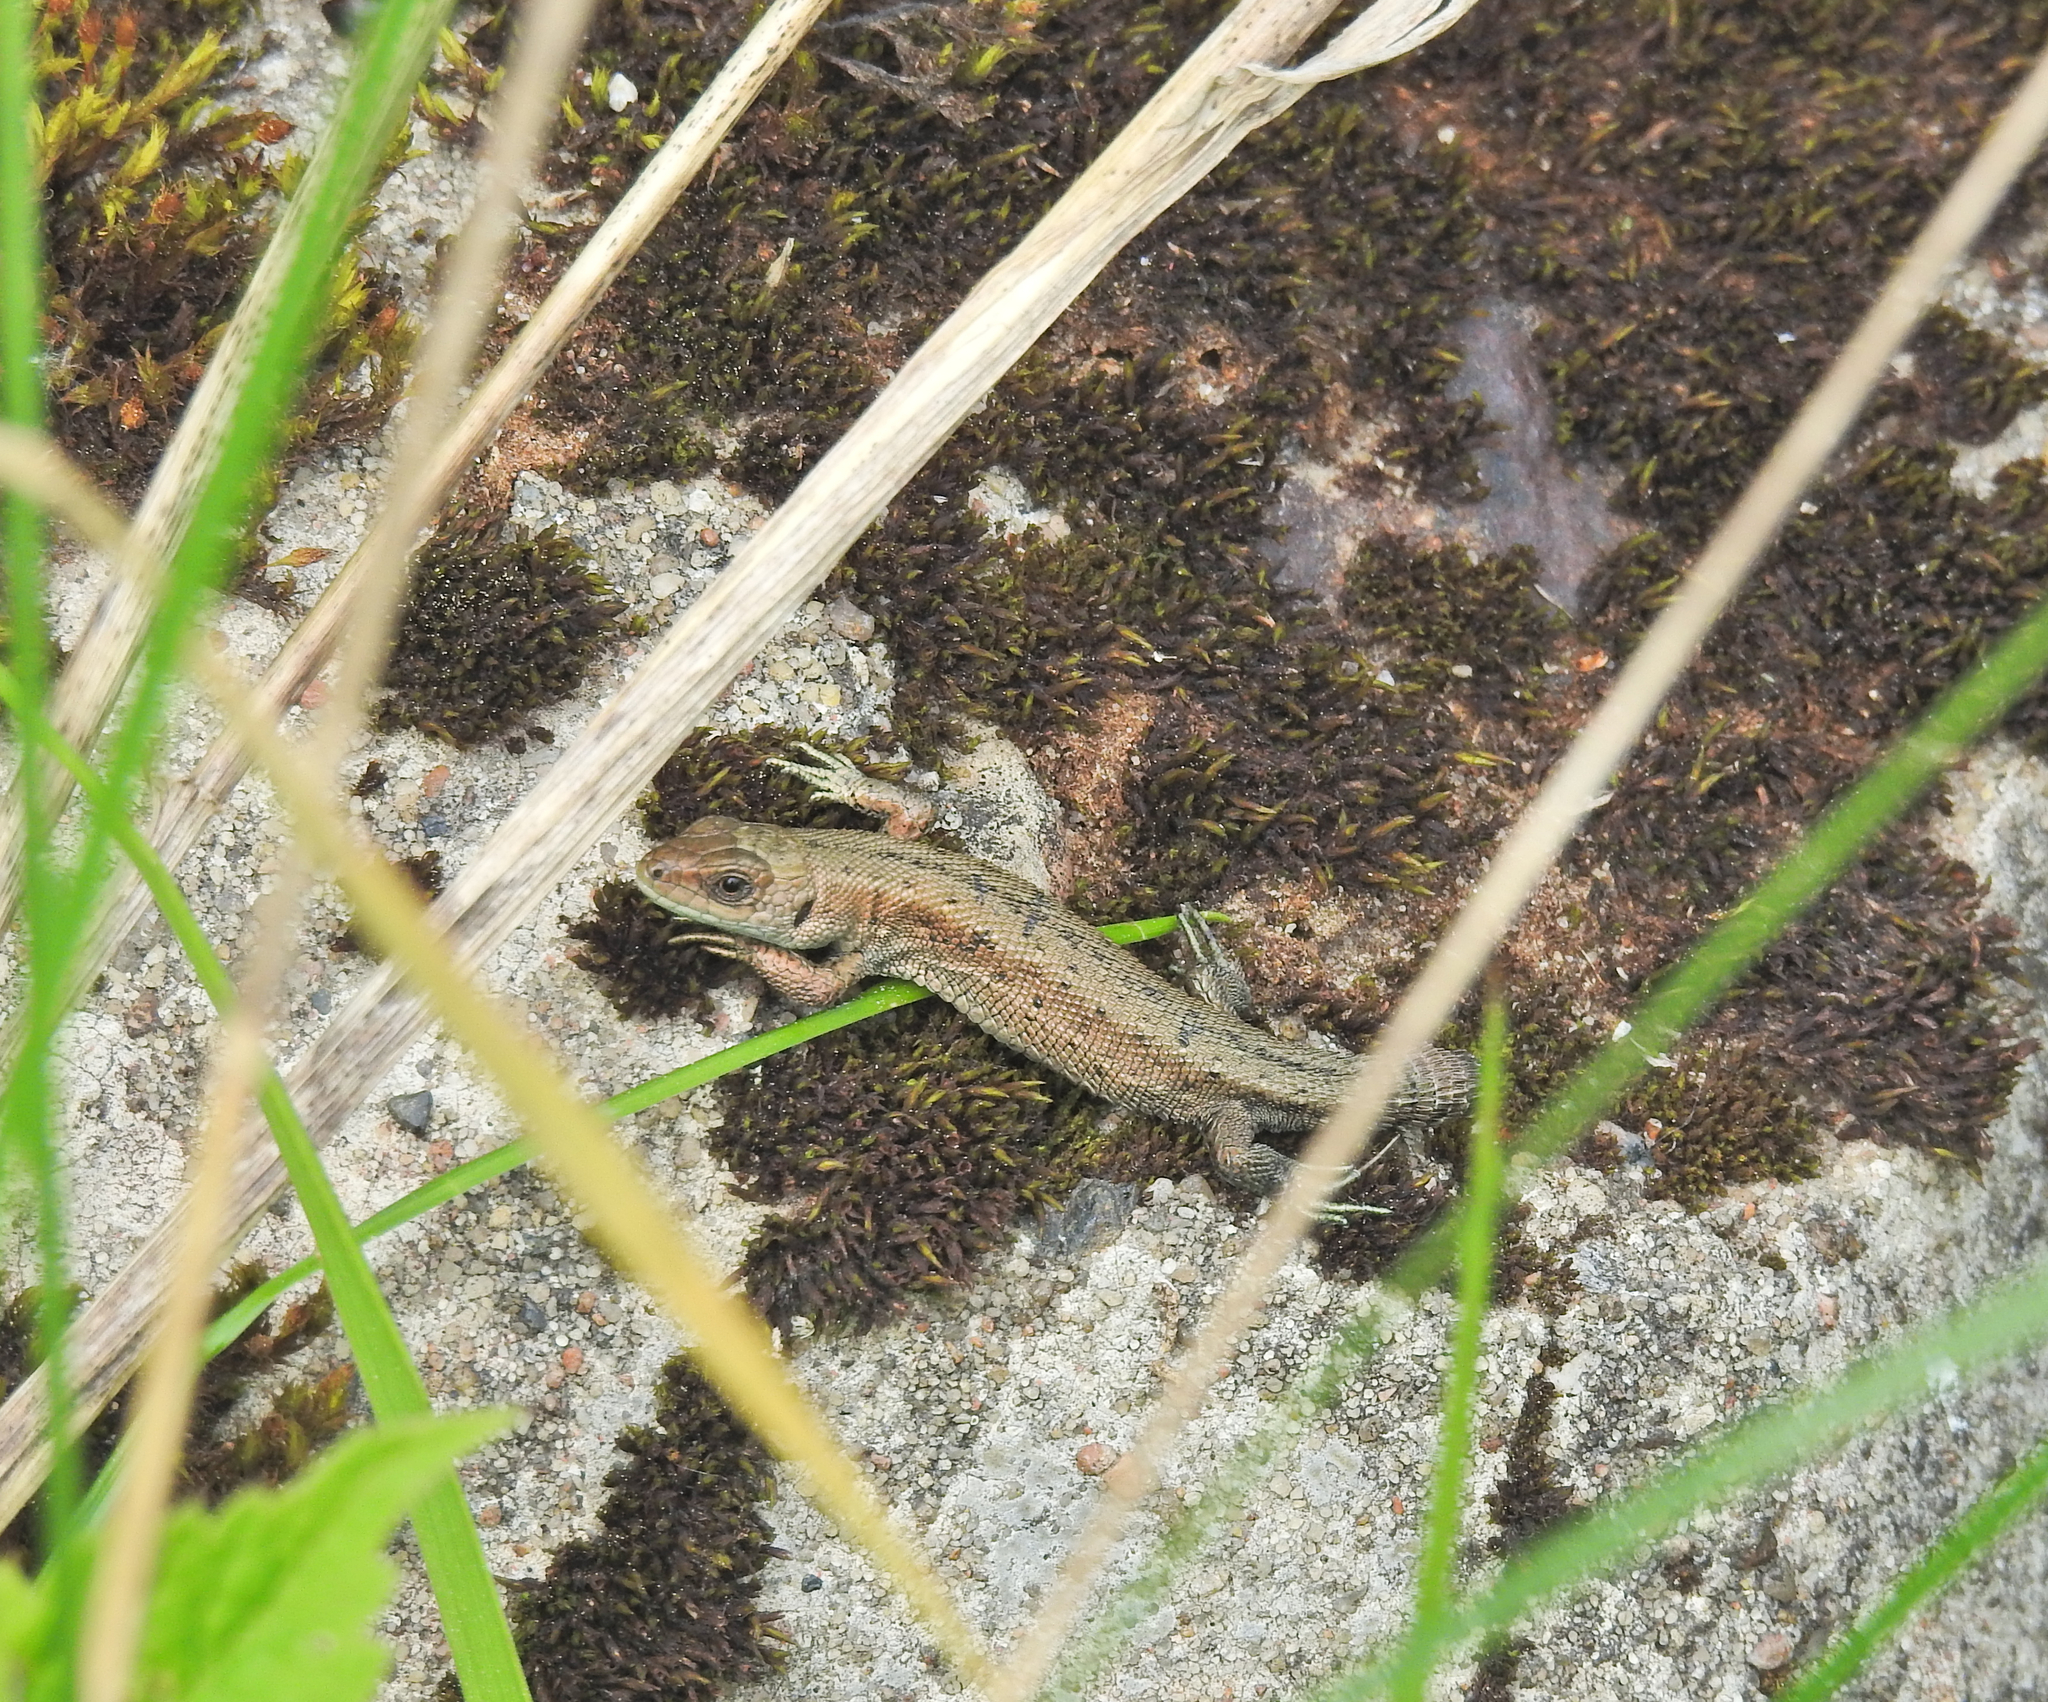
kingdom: Animalia
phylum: Chordata
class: Squamata
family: Lacertidae
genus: Zootoca
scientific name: Zootoca vivipara
